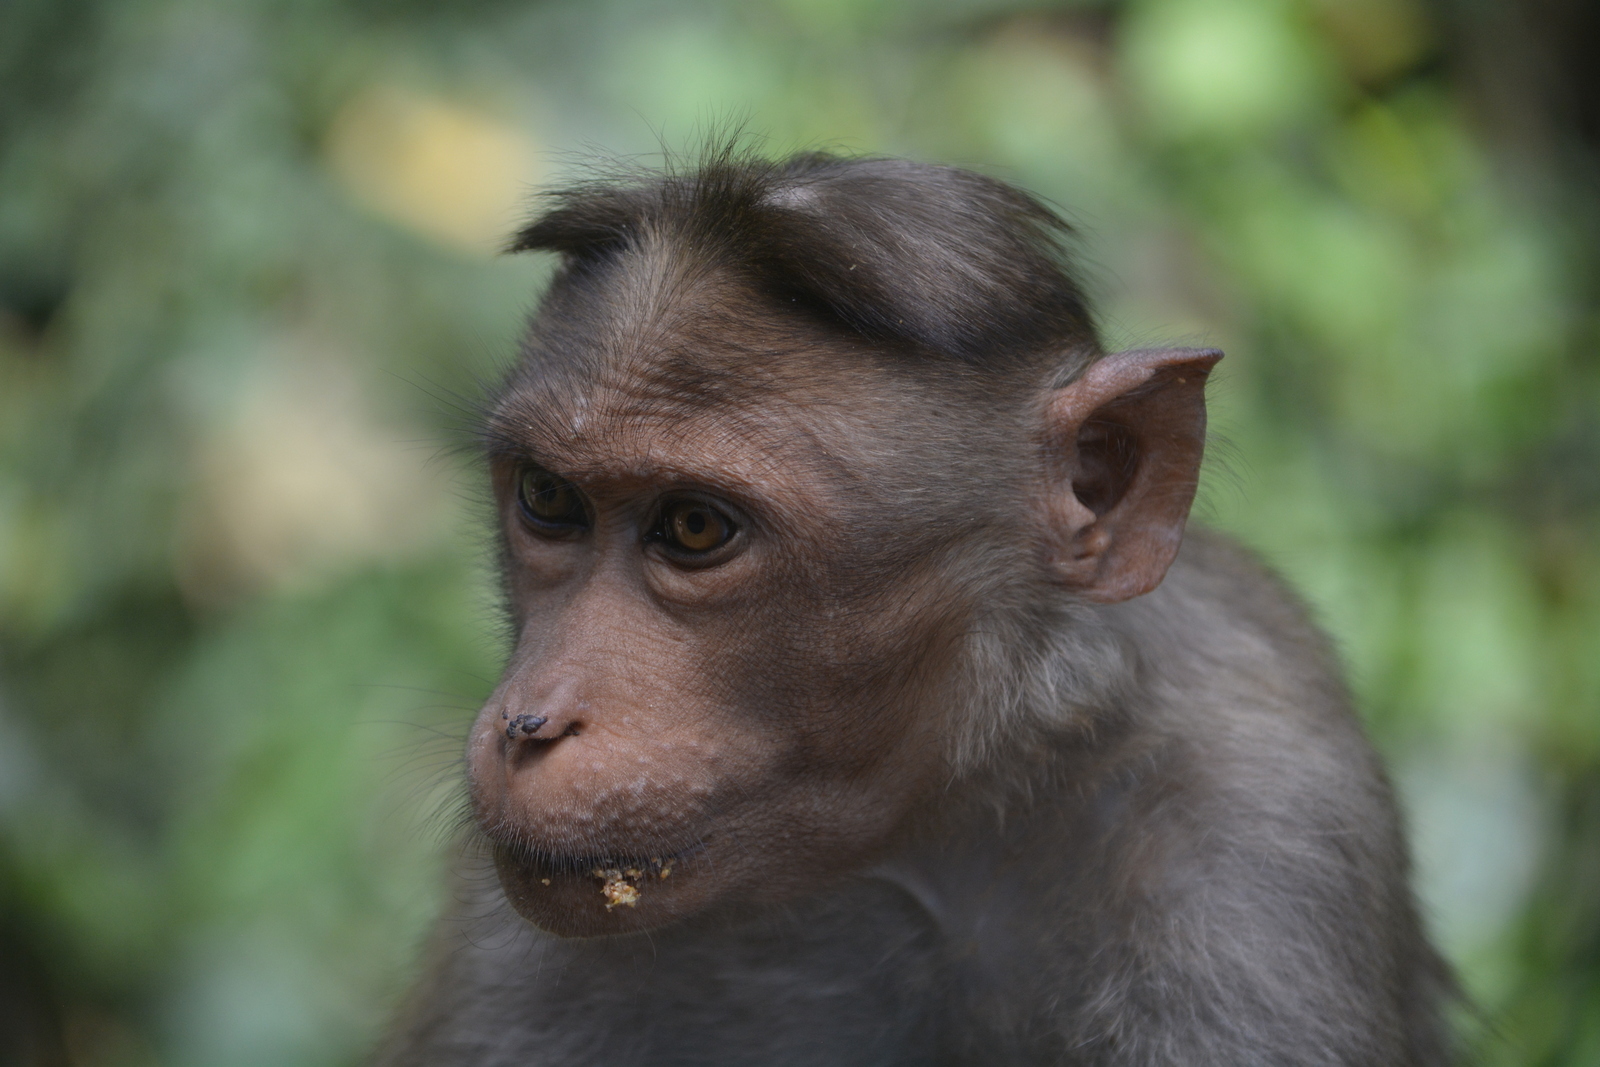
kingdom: Animalia
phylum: Chordata
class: Mammalia
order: Primates
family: Cercopithecidae
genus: Macaca
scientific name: Macaca radiata
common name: Bonnet macaque
